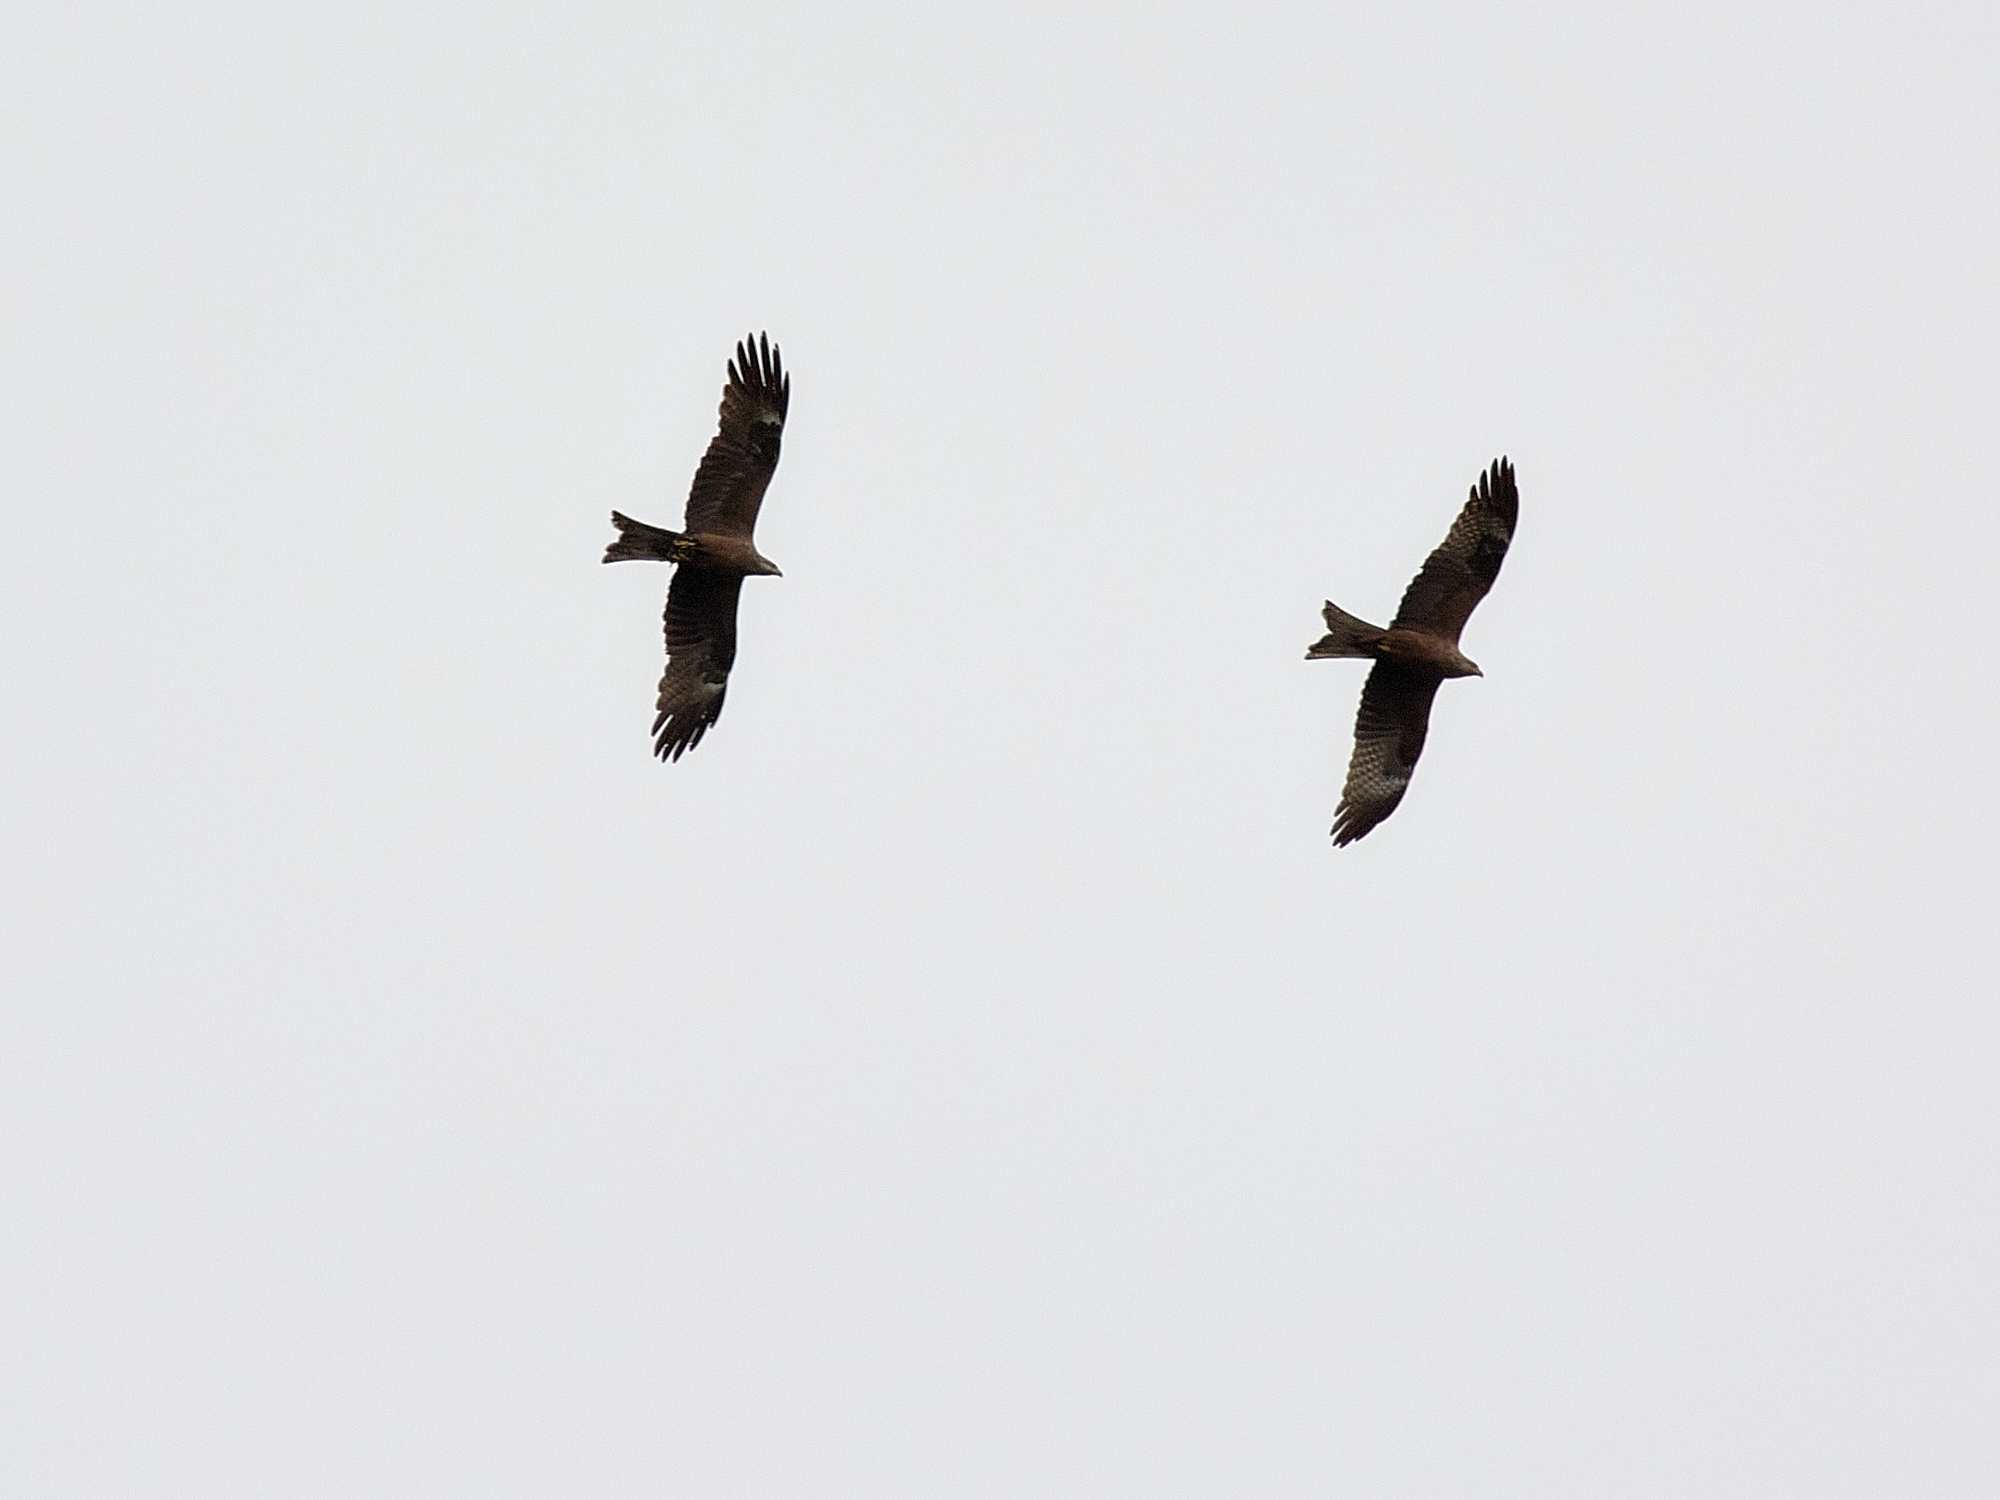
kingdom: Animalia
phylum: Chordata
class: Aves
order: Accipitriformes
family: Accipitridae
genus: Milvus
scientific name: Milvus migrans
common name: Black kite
